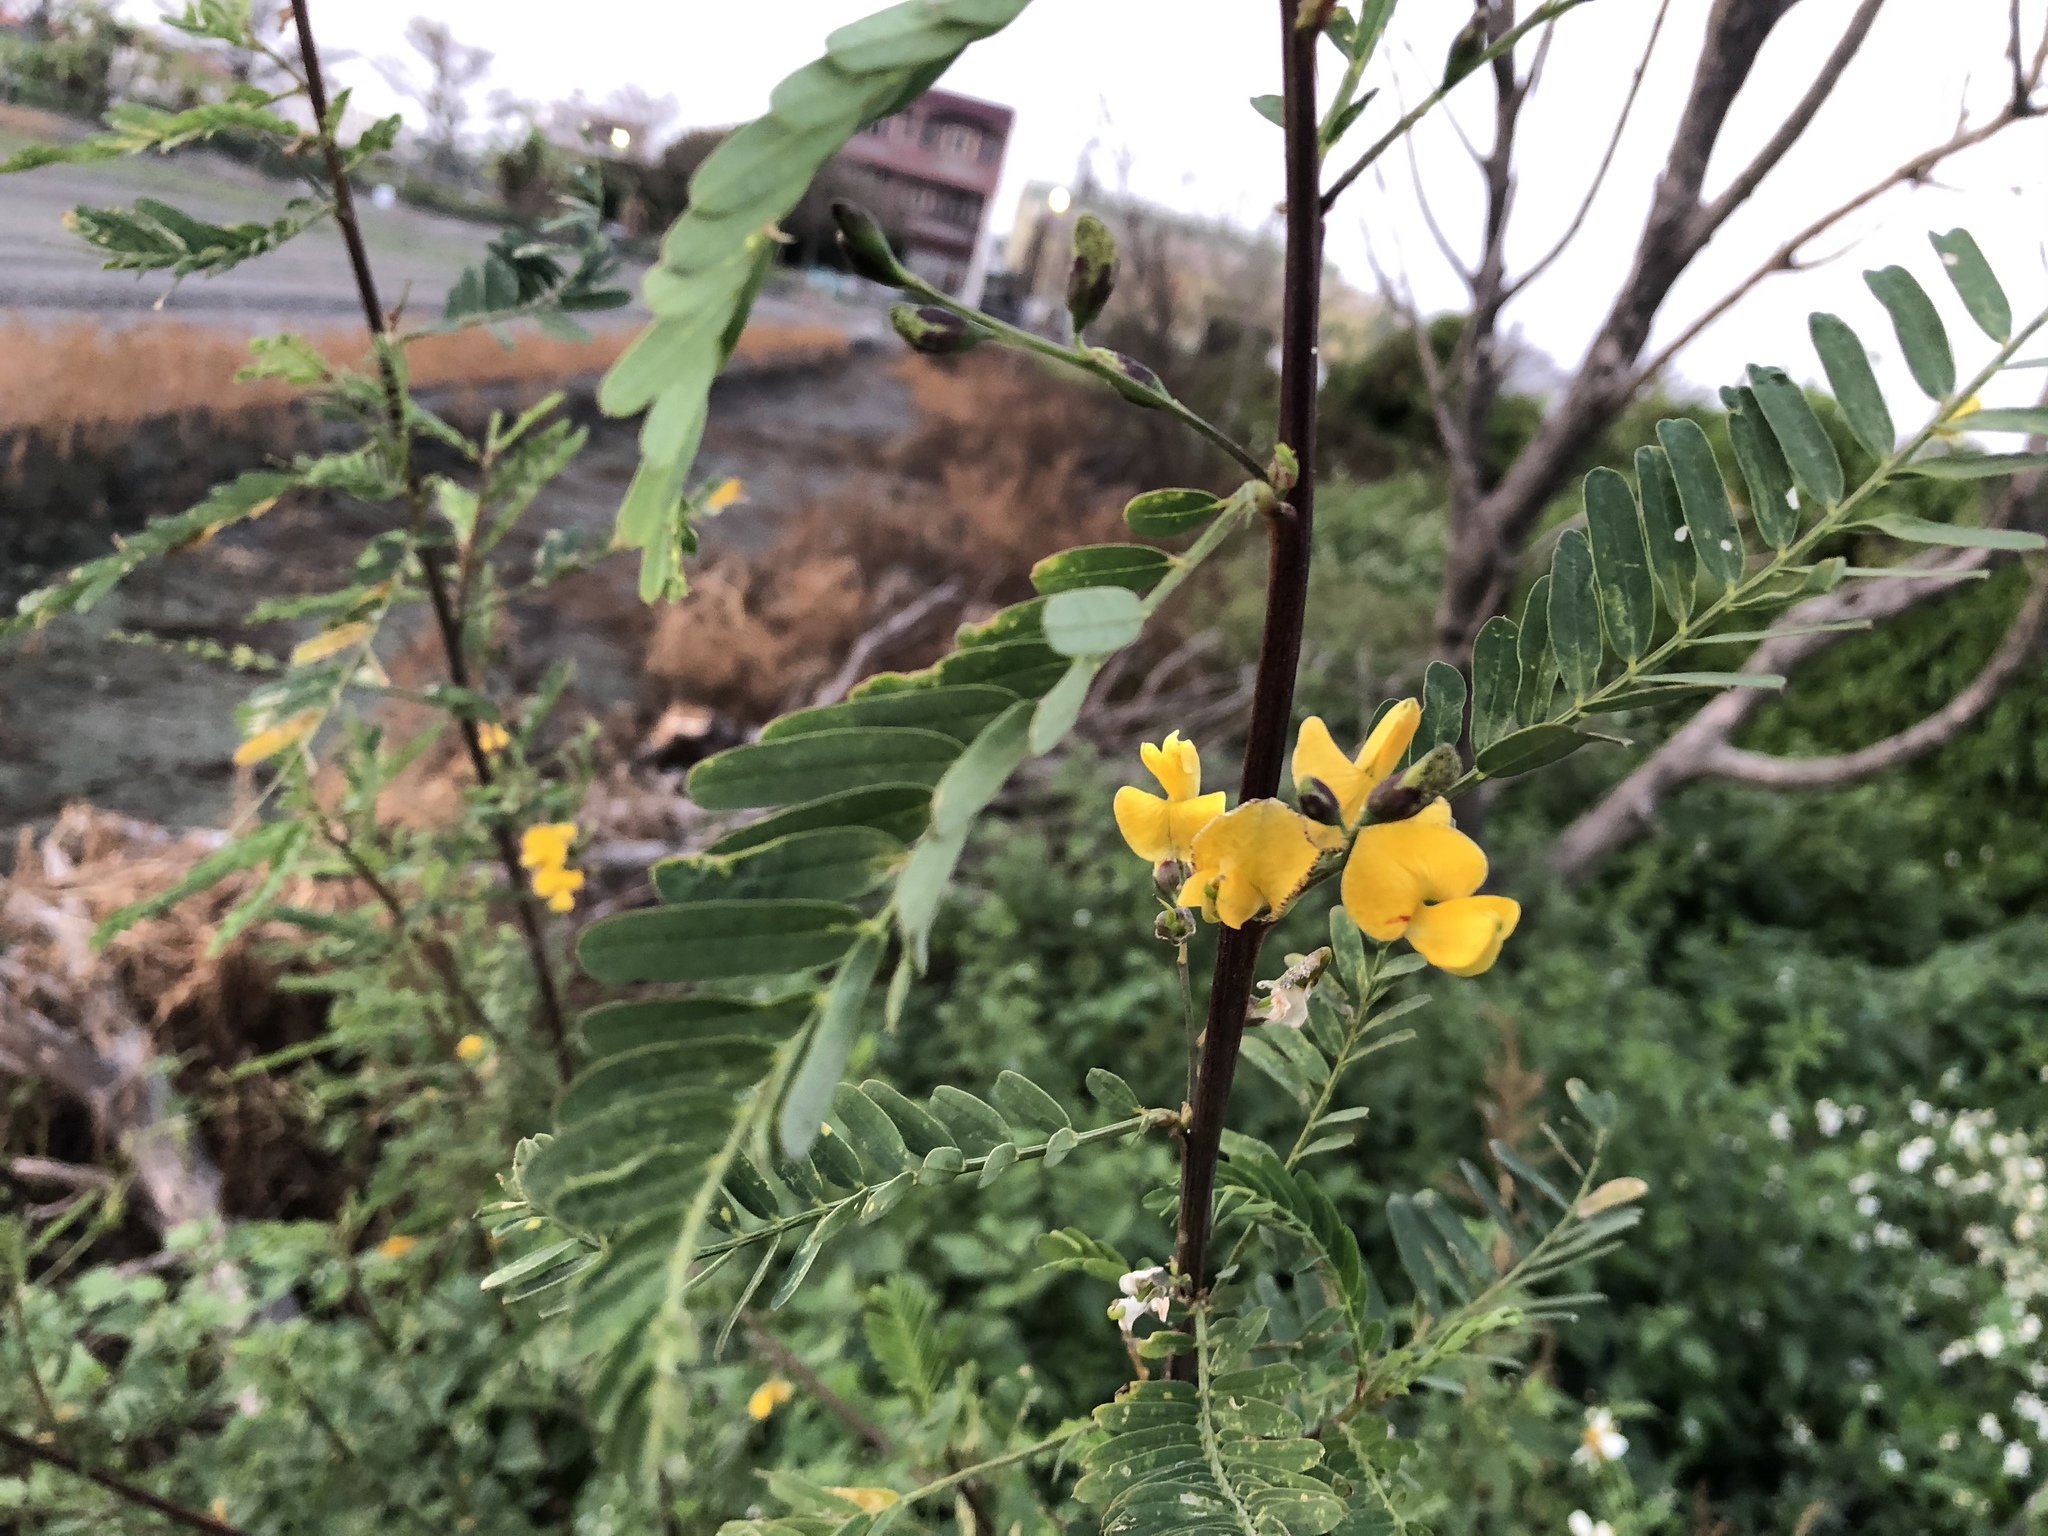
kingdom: Plantae
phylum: Tracheophyta
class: Magnoliopsida
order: Fabales
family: Fabaceae
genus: Sesbania
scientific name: Sesbania cannabina
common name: Canicha
